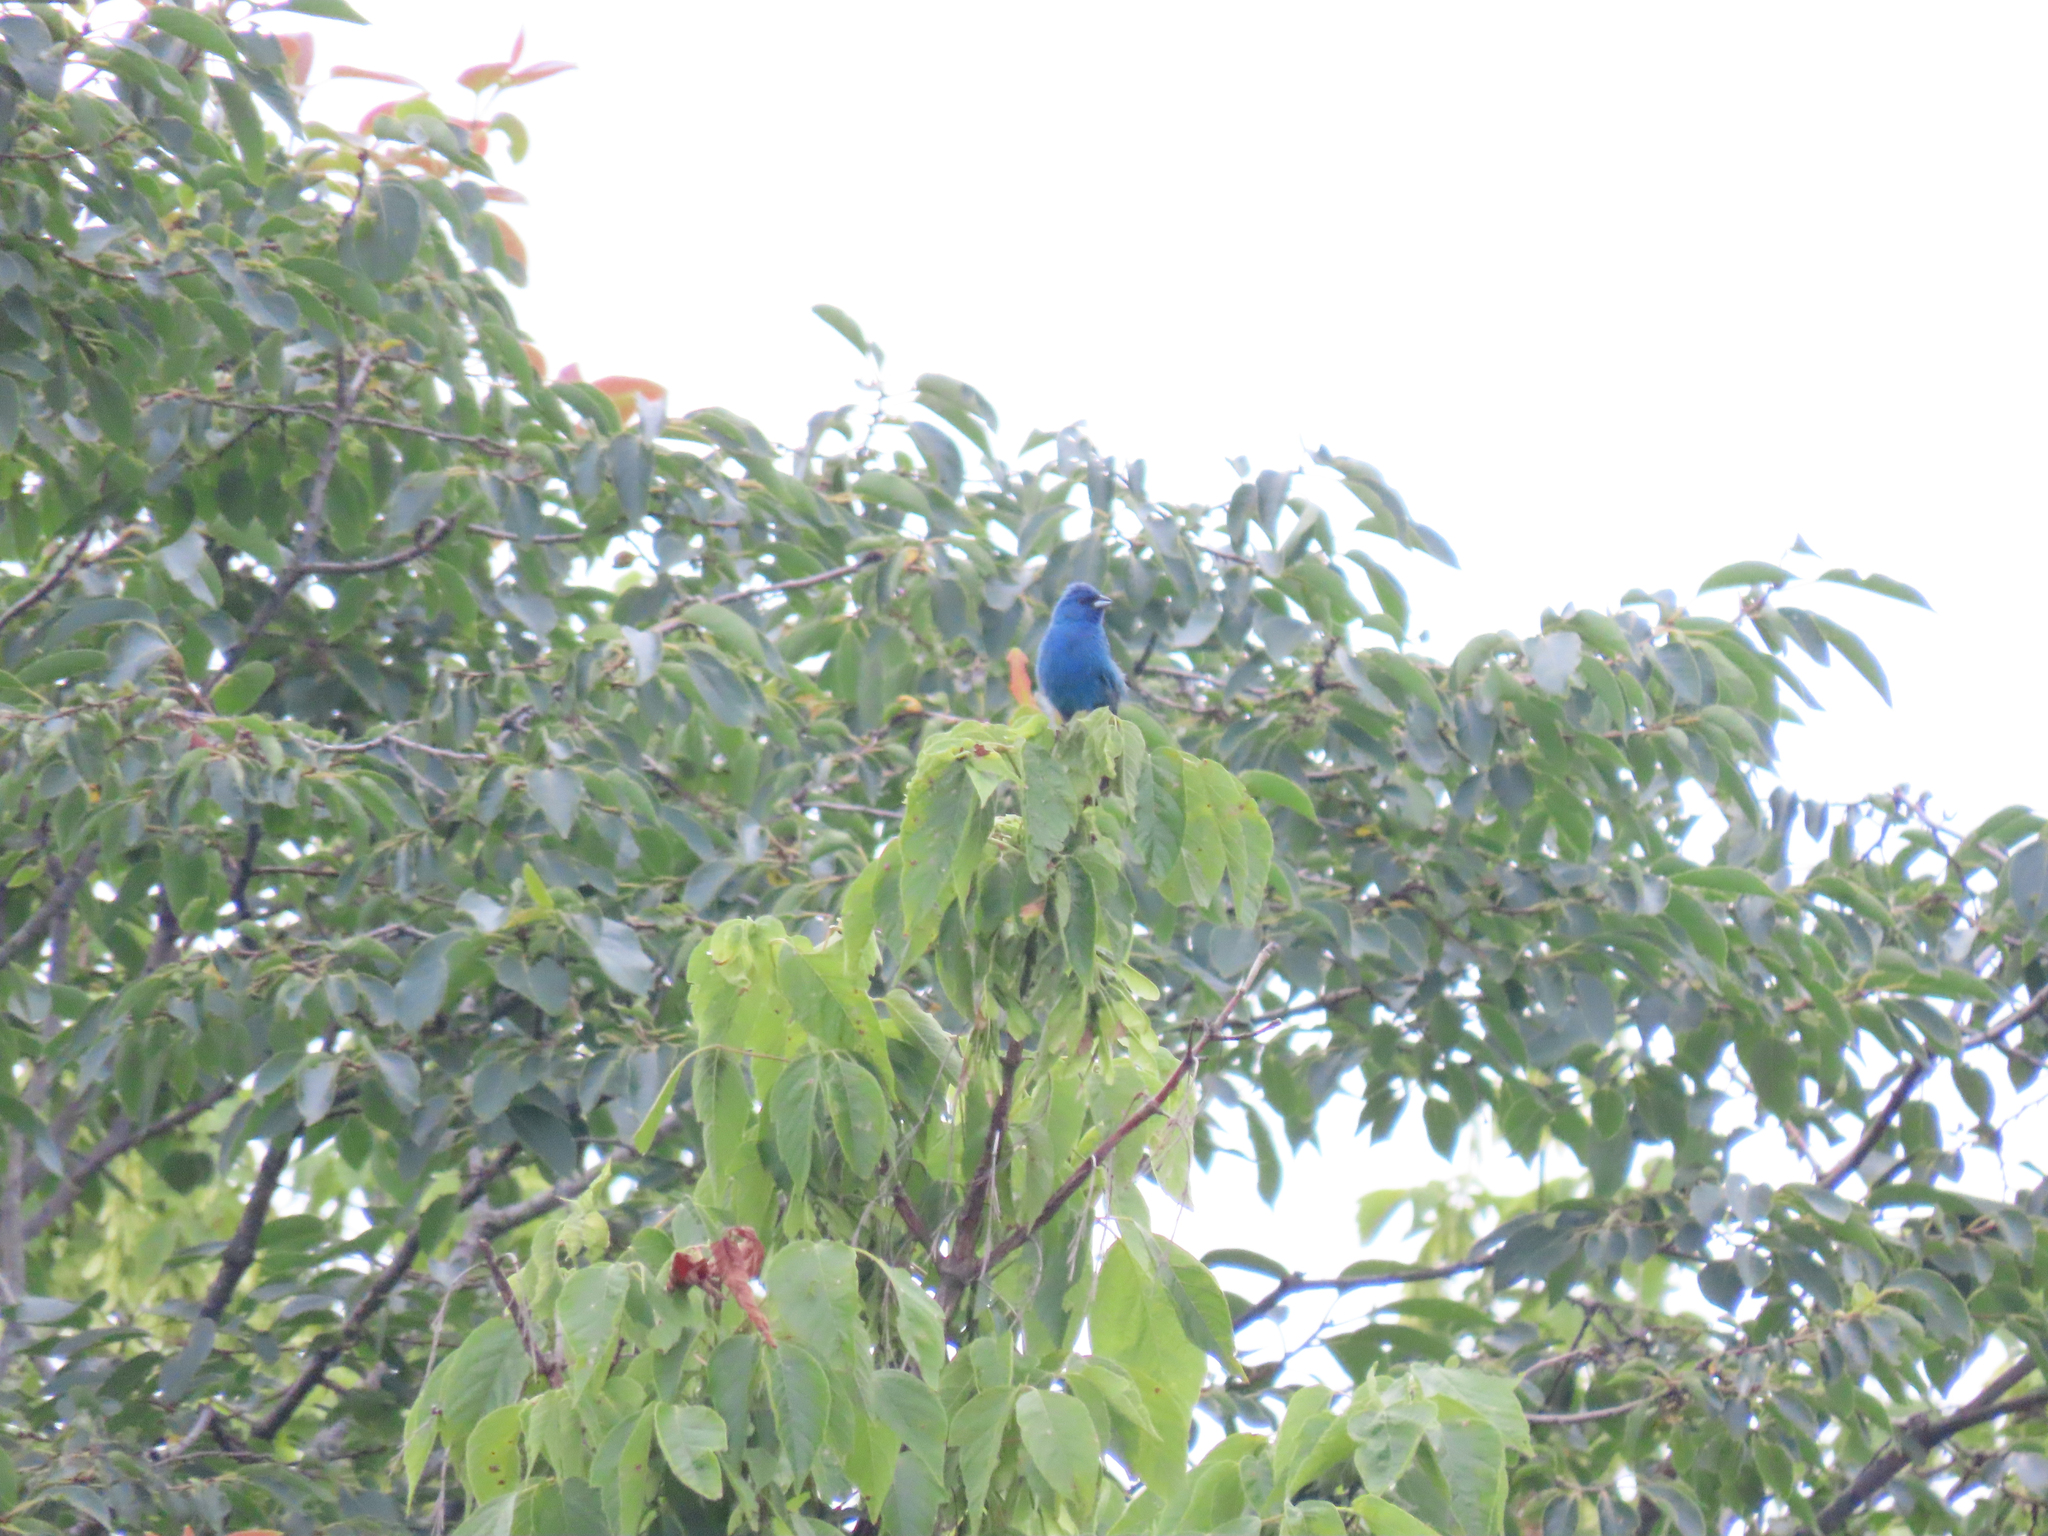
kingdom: Animalia
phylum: Chordata
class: Aves
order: Passeriformes
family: Cardinalidae
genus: Passerina
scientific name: Passerina cyanea
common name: Indigo bunting
